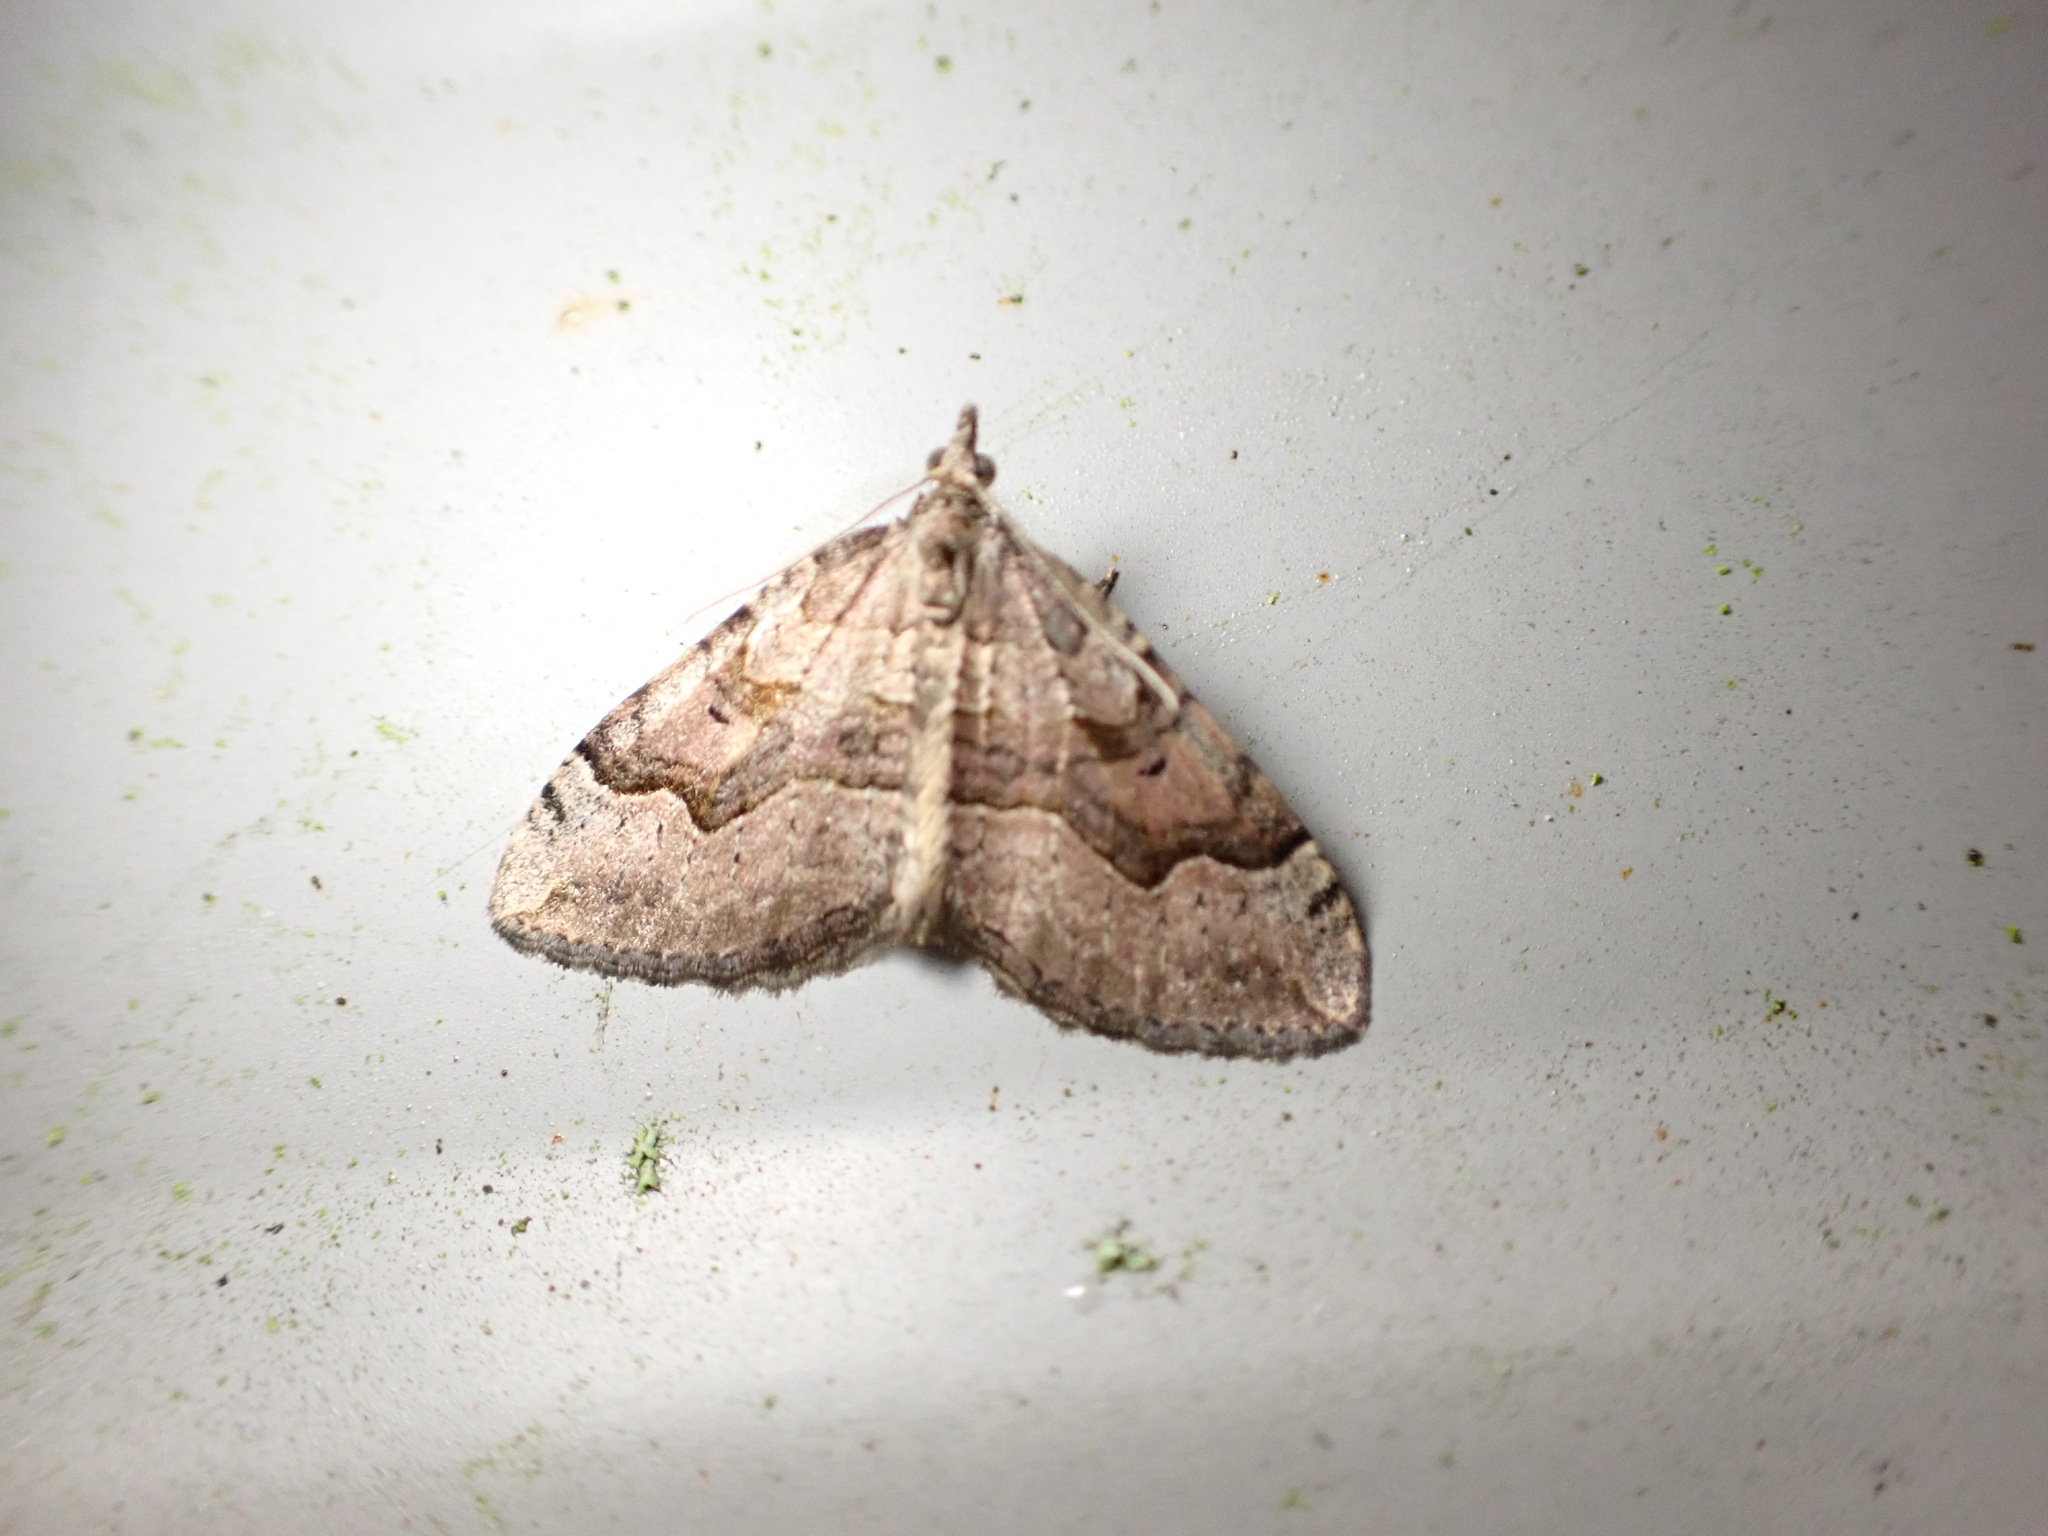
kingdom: Animalia
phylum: Arthropoda
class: Insecta
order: Lepidoptera
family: Geometridae
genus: Epyaxa
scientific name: Epyaxa rosearia
